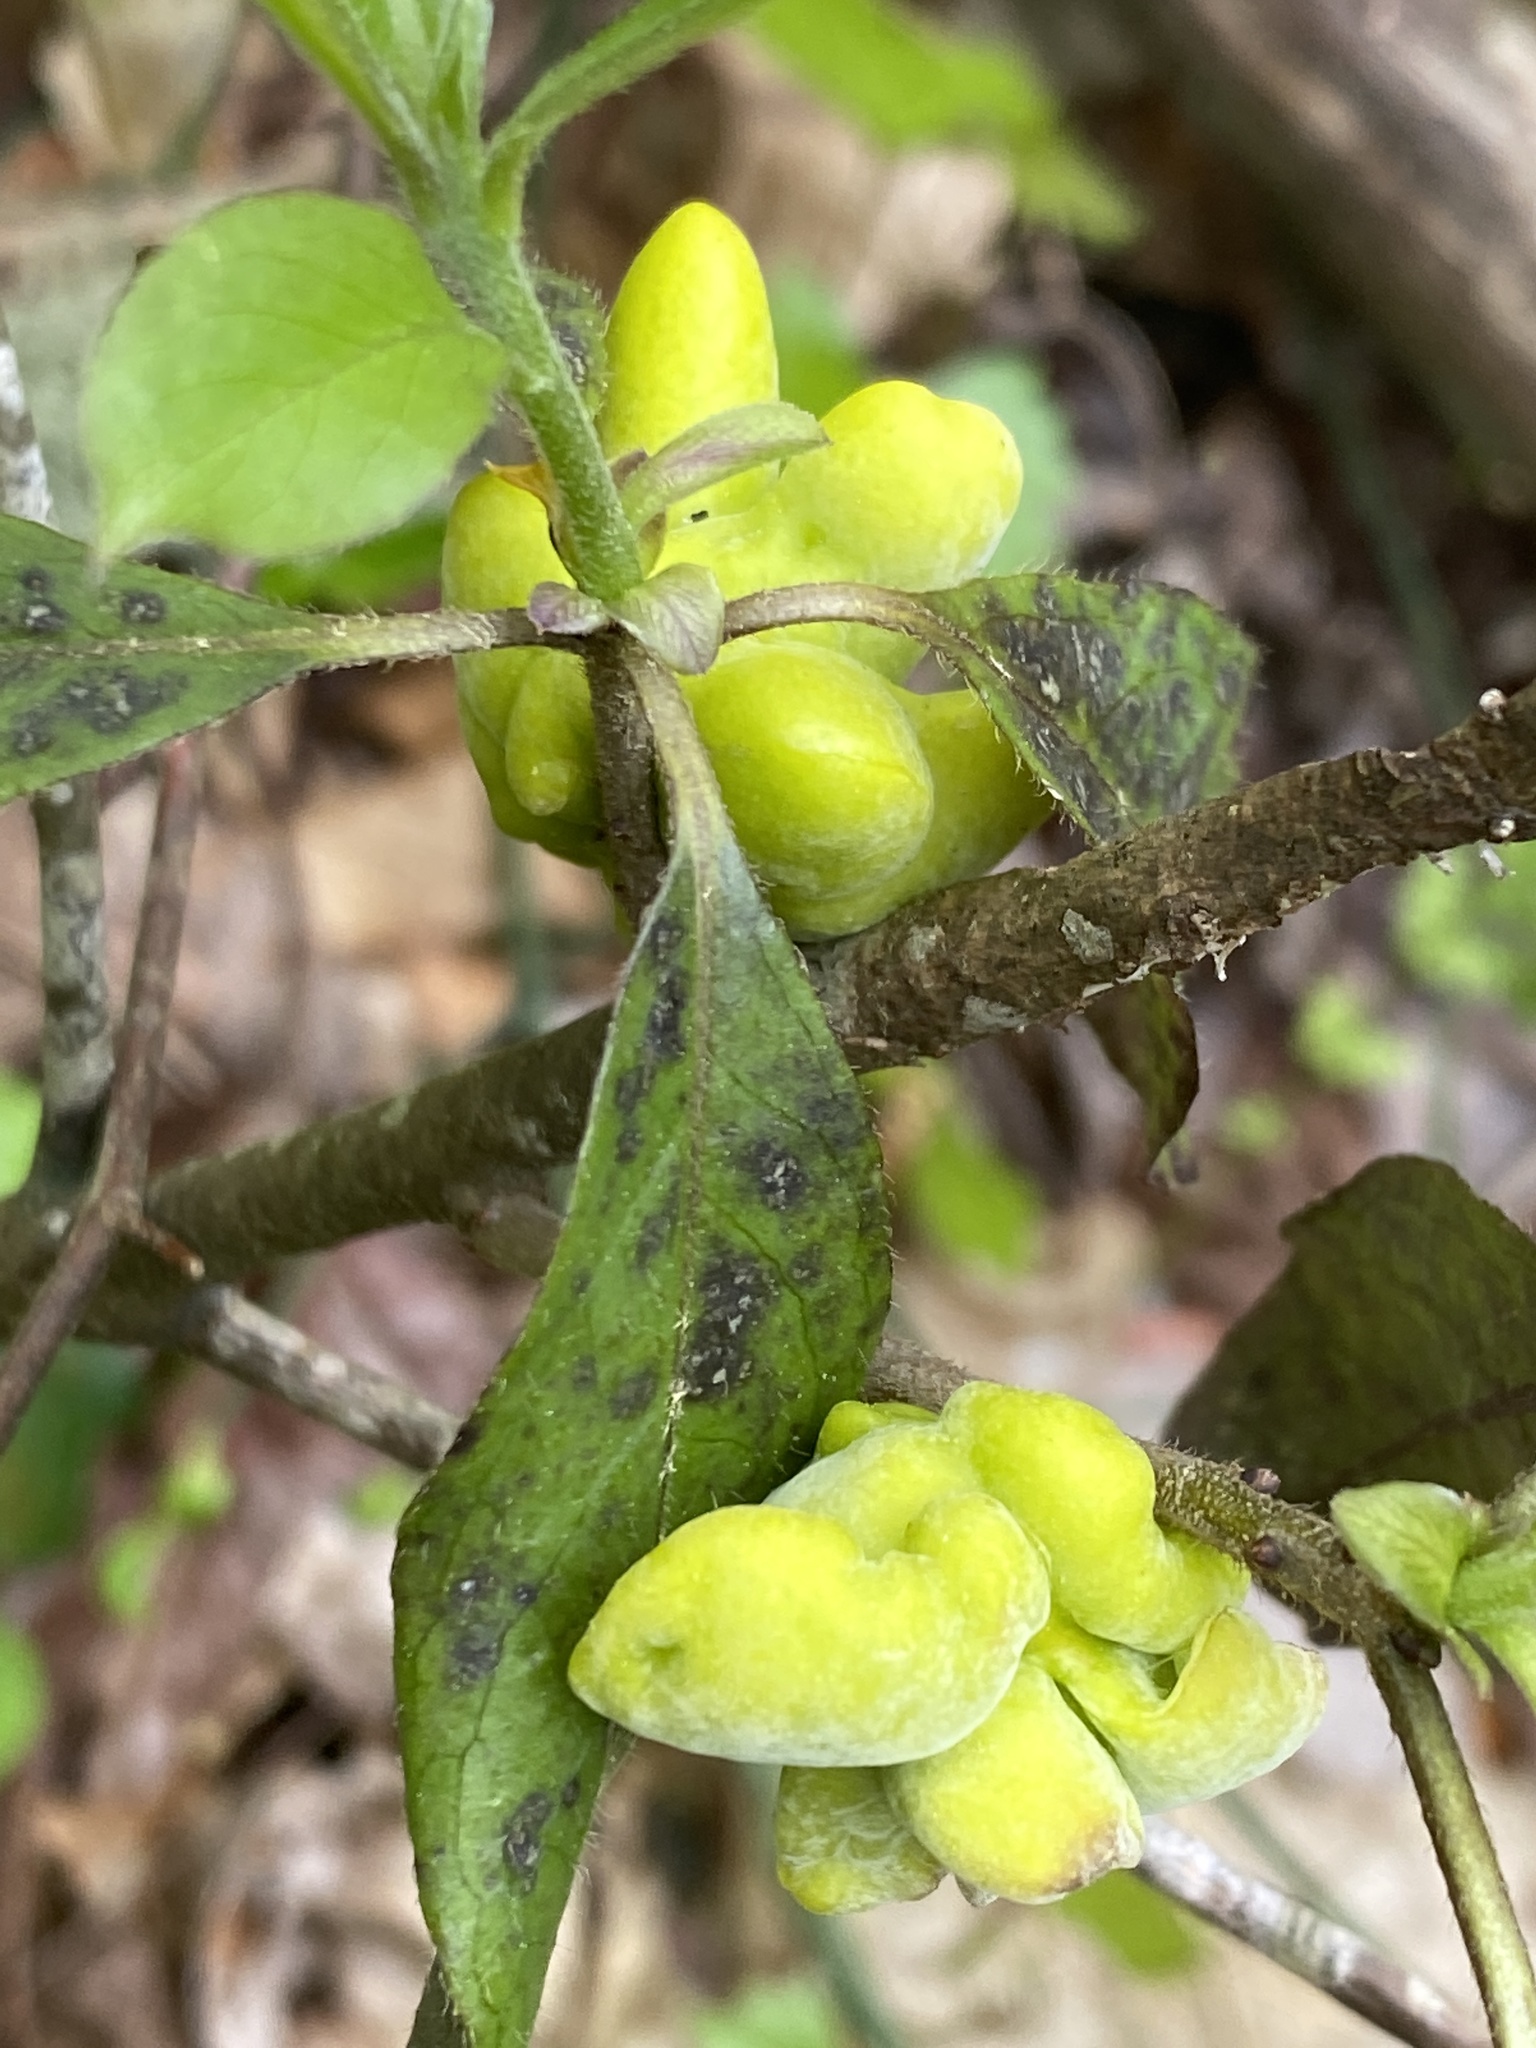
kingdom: Fungi
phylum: Basidiomycota
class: Exobasidiomycetes
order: Exobasidiales
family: Exobasidiaceae
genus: Exobasidium
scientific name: Exobasidium symploci
